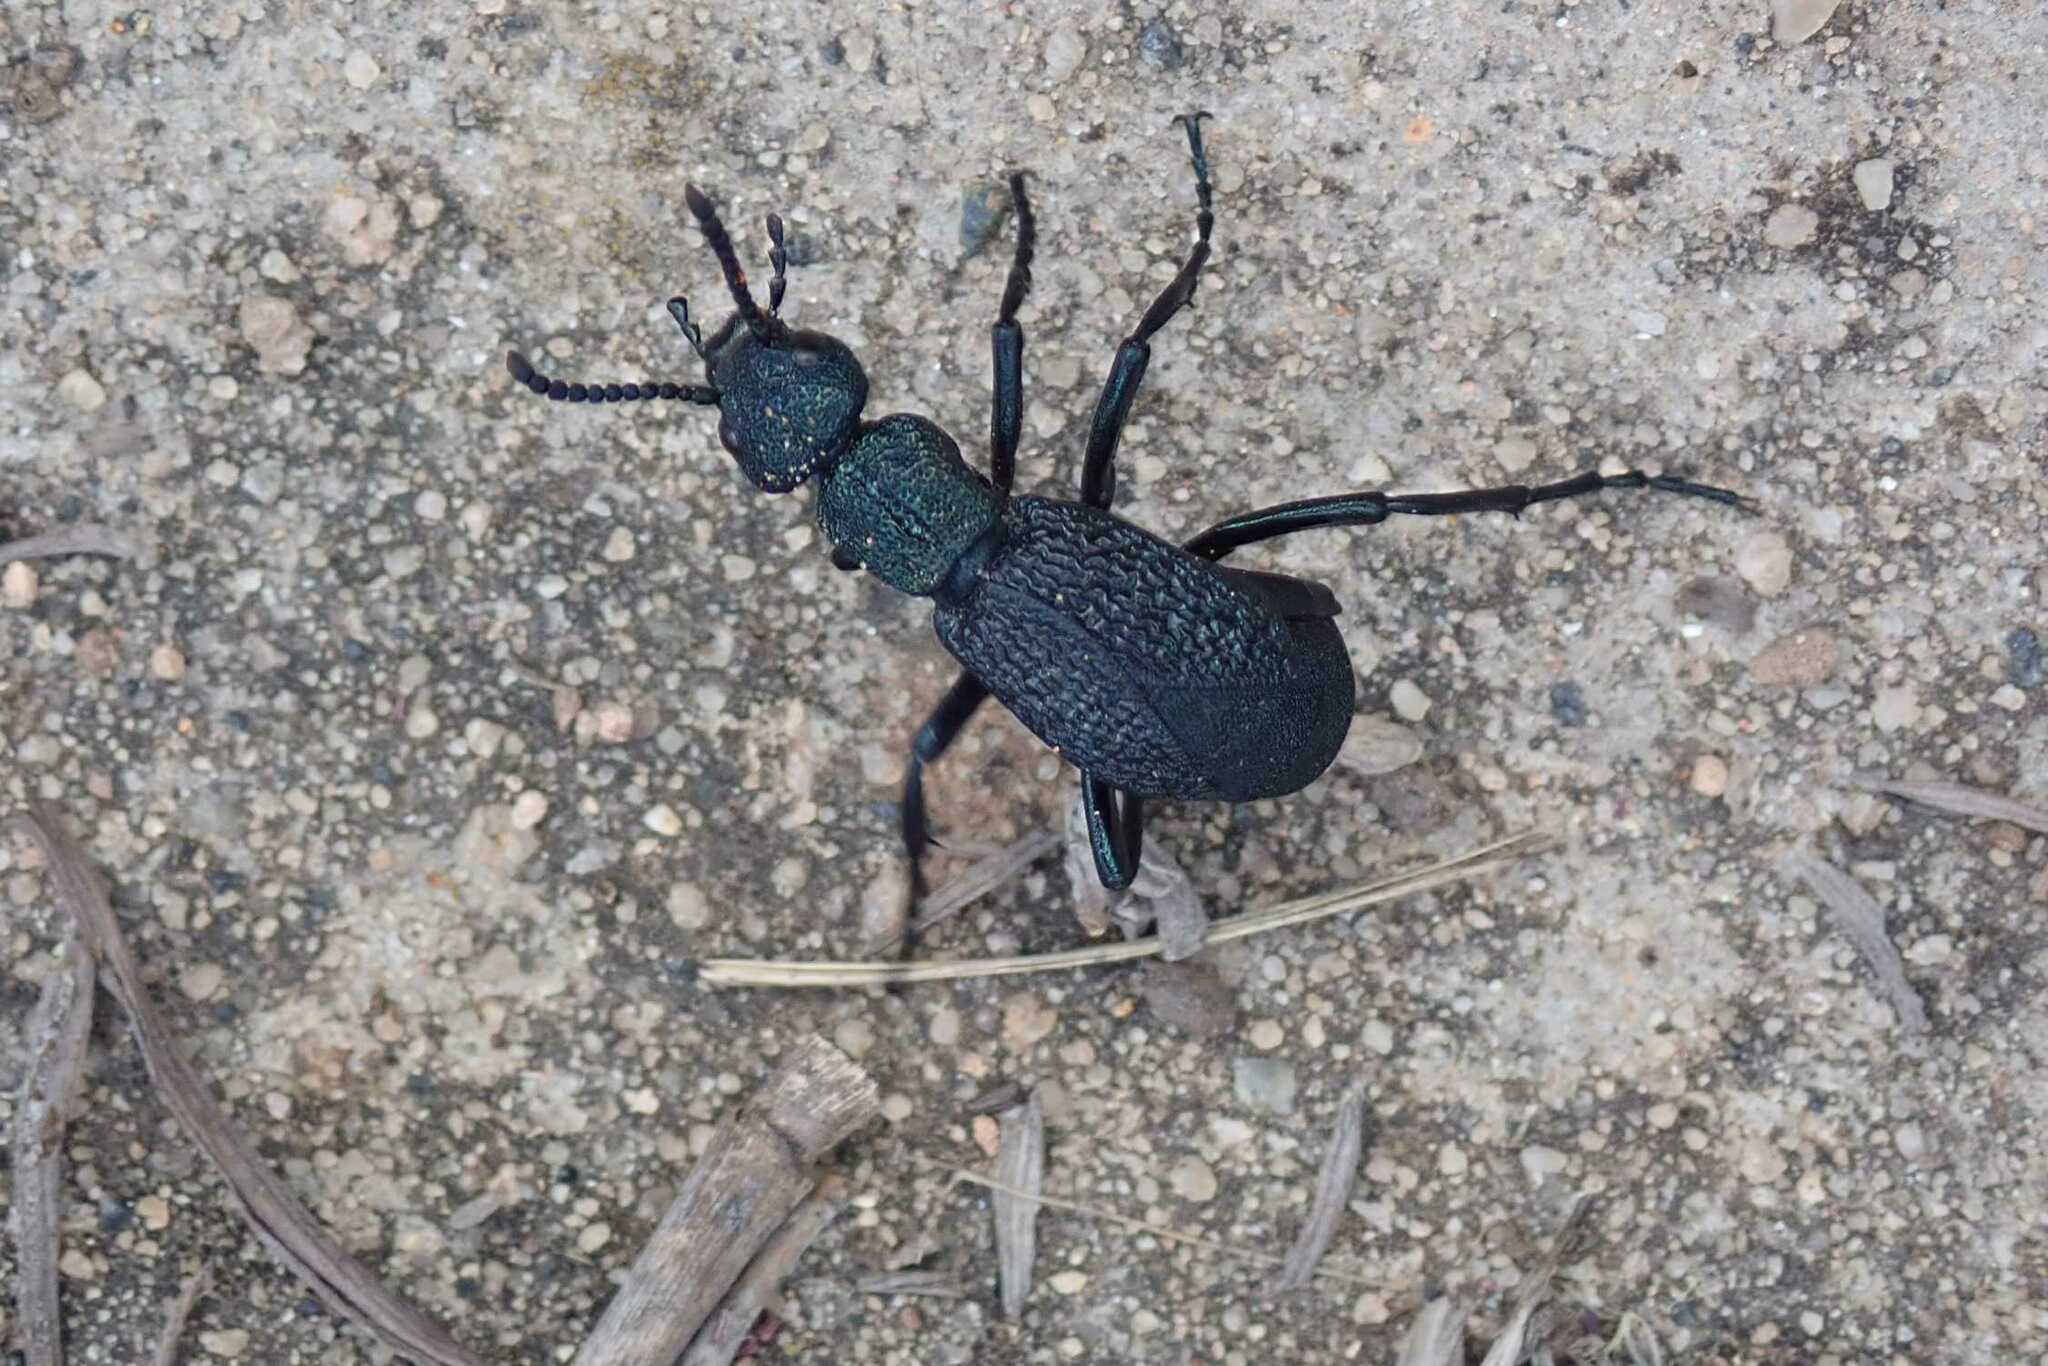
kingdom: Animalia
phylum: Arthropoda
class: Insecta
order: Coleoptera
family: Meloidae
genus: Meloe
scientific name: Meloe
